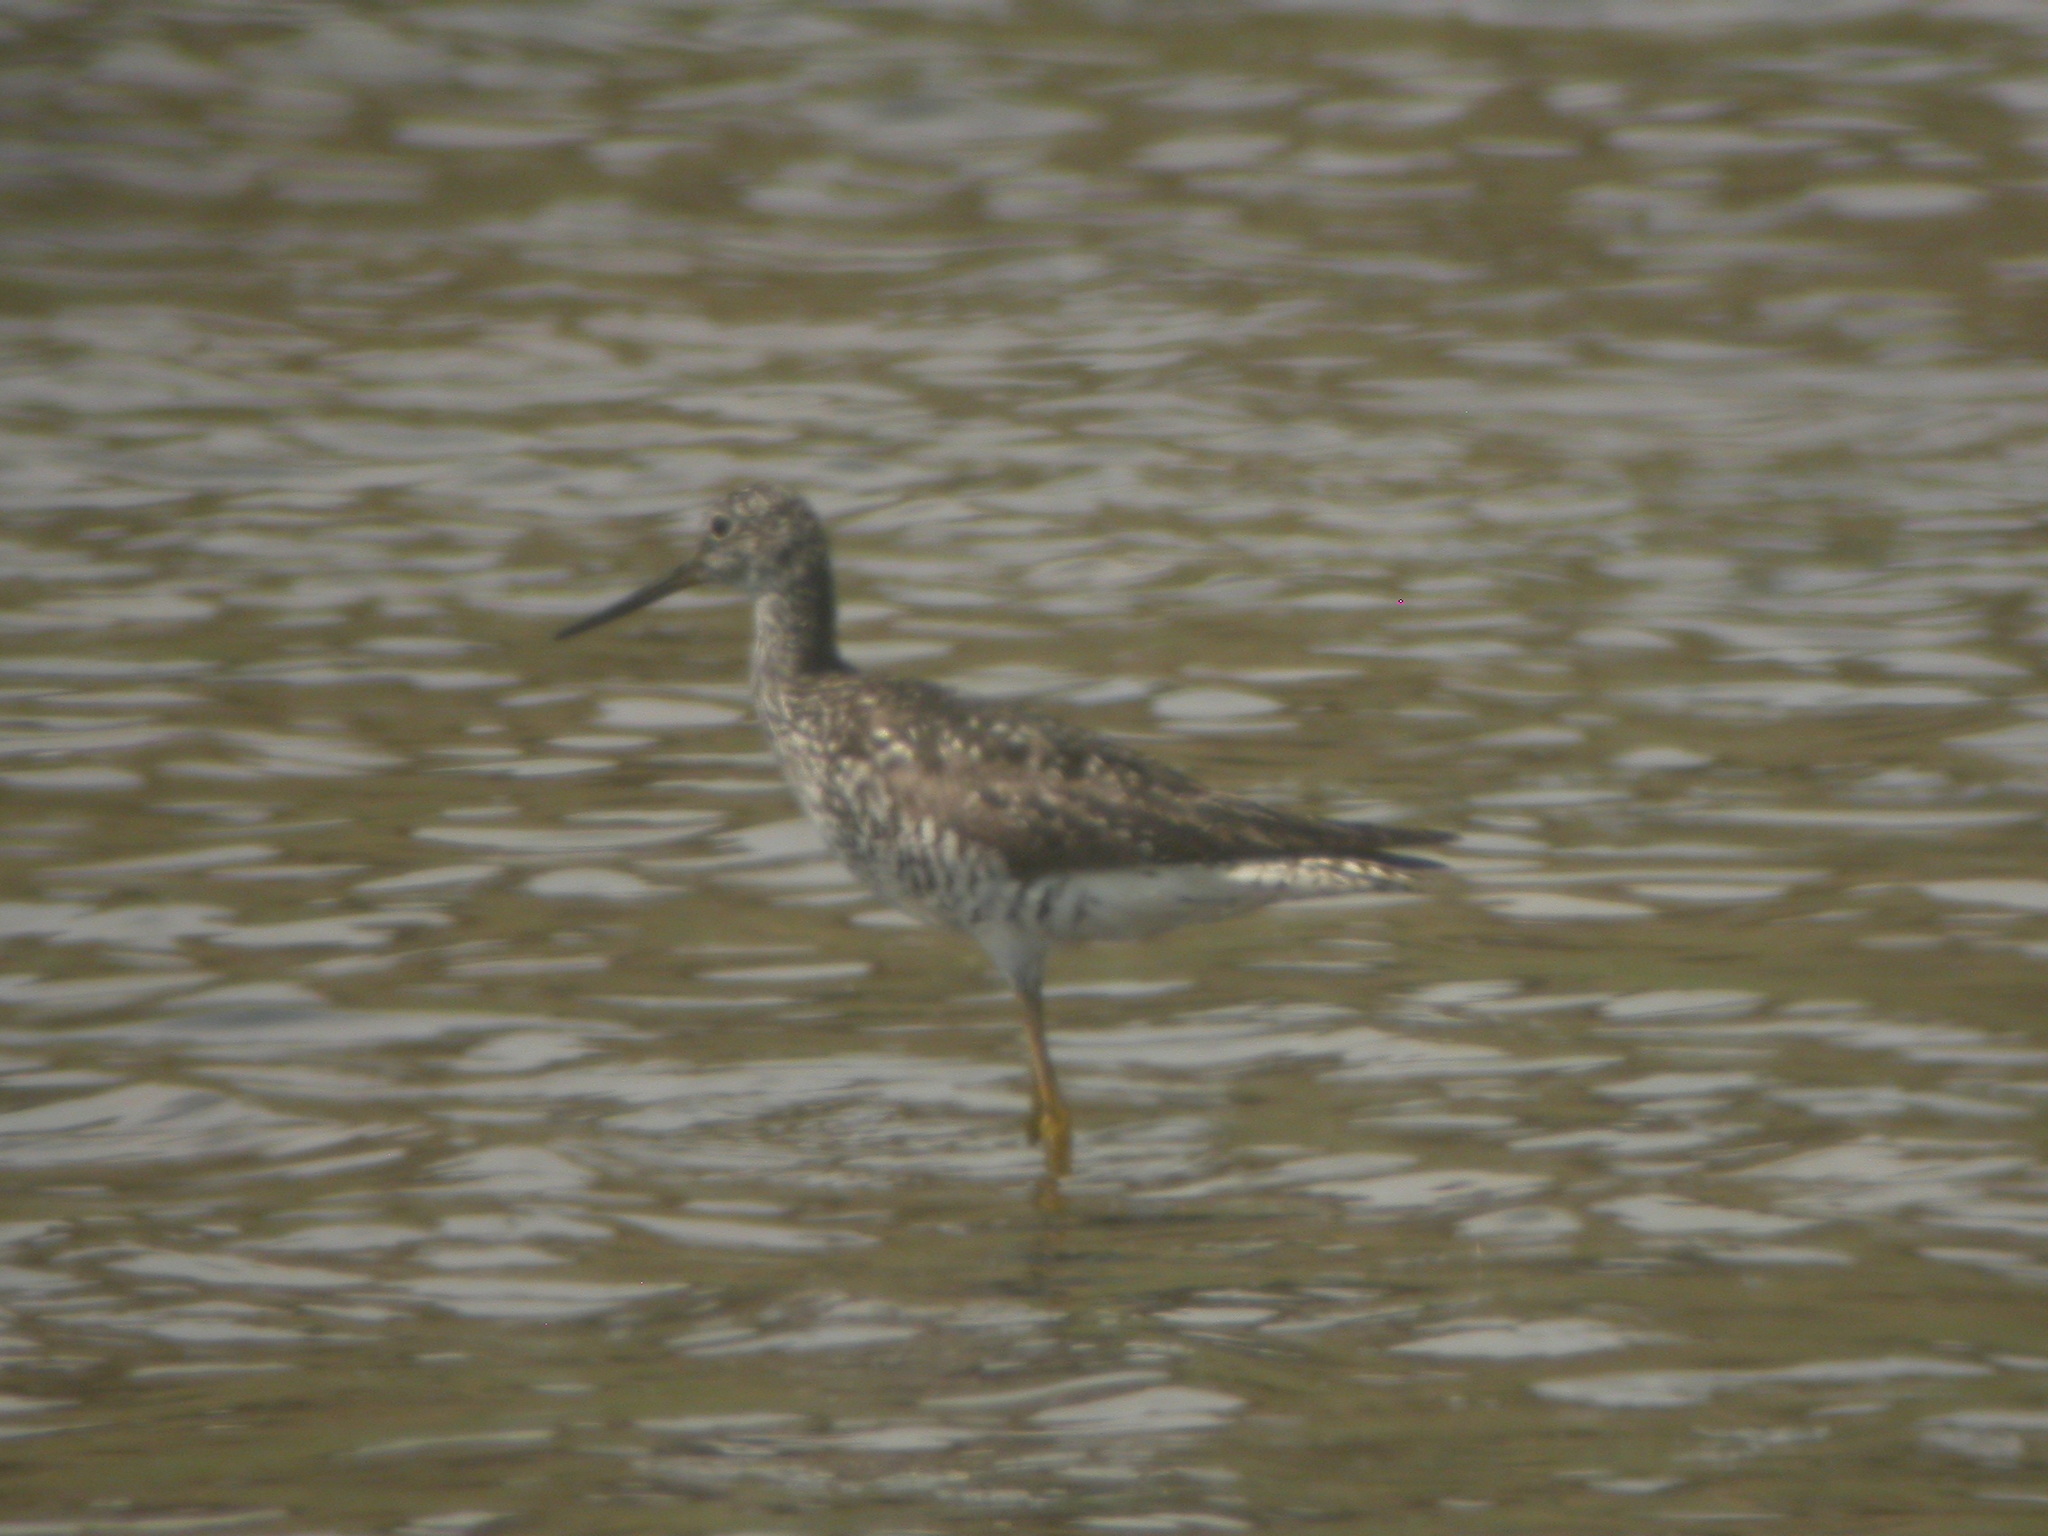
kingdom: Animalia
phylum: Chordata
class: Aves
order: Charadriiformes
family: Scolopacidae
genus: Tringa
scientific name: Tringa melanoleuca
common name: Greater yellowlegs
